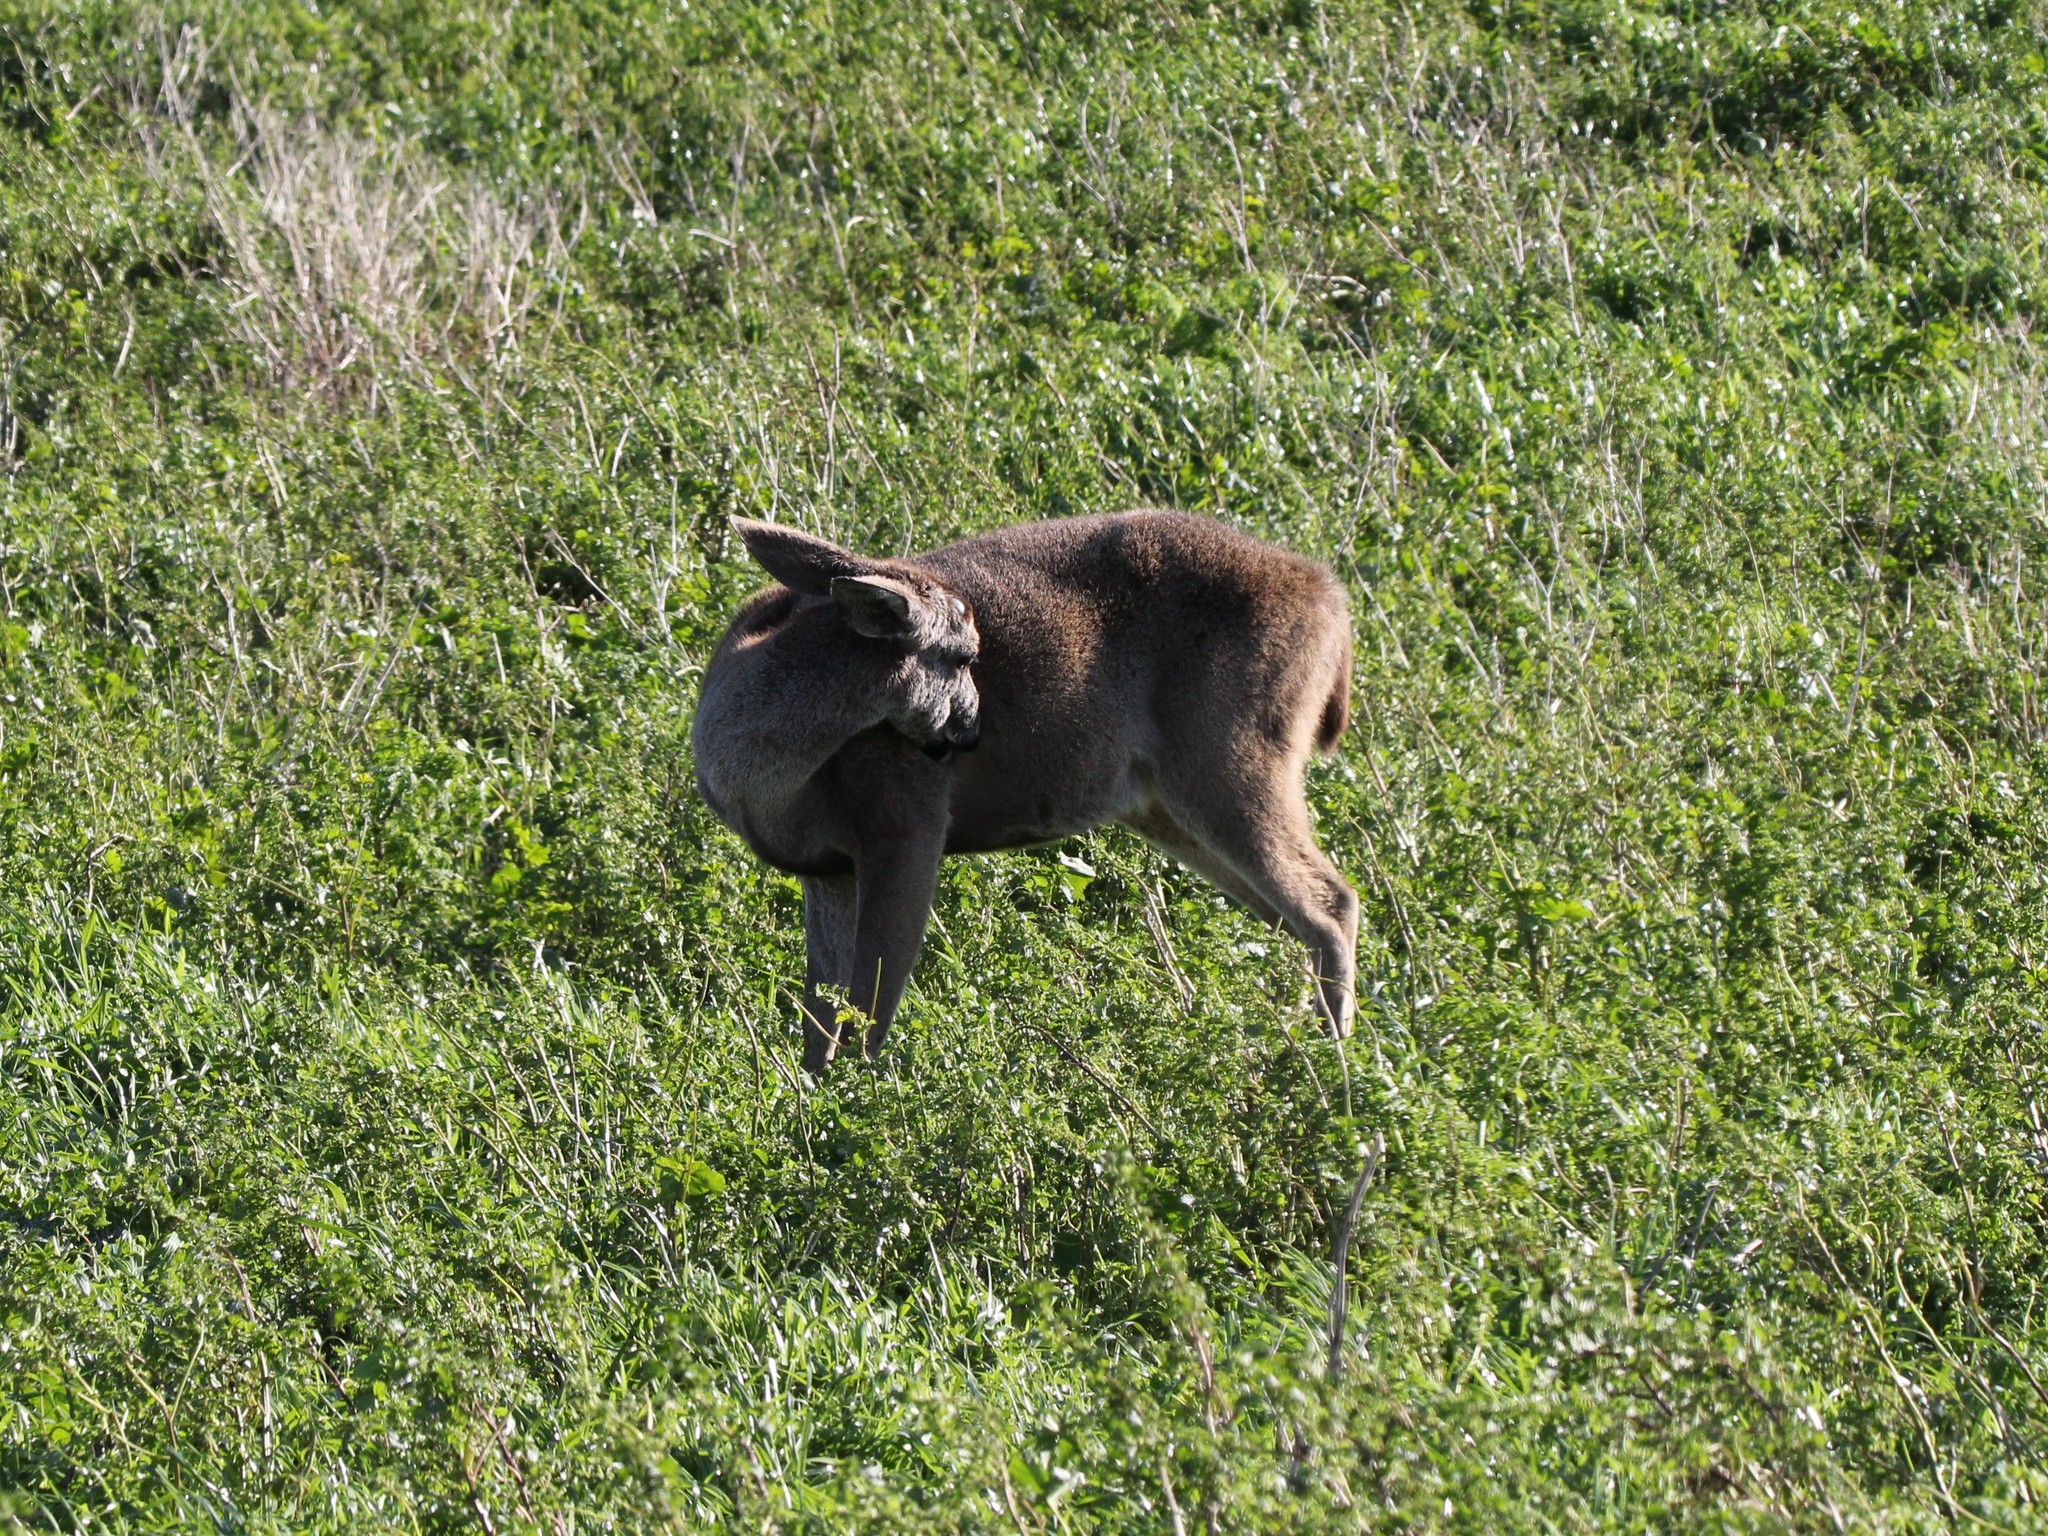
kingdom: Animalia
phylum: Chordata
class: Mammalia
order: Artiodactyla
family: Cervidae
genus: Odocoileus
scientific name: Odocoileus hemionus
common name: Mule deer
